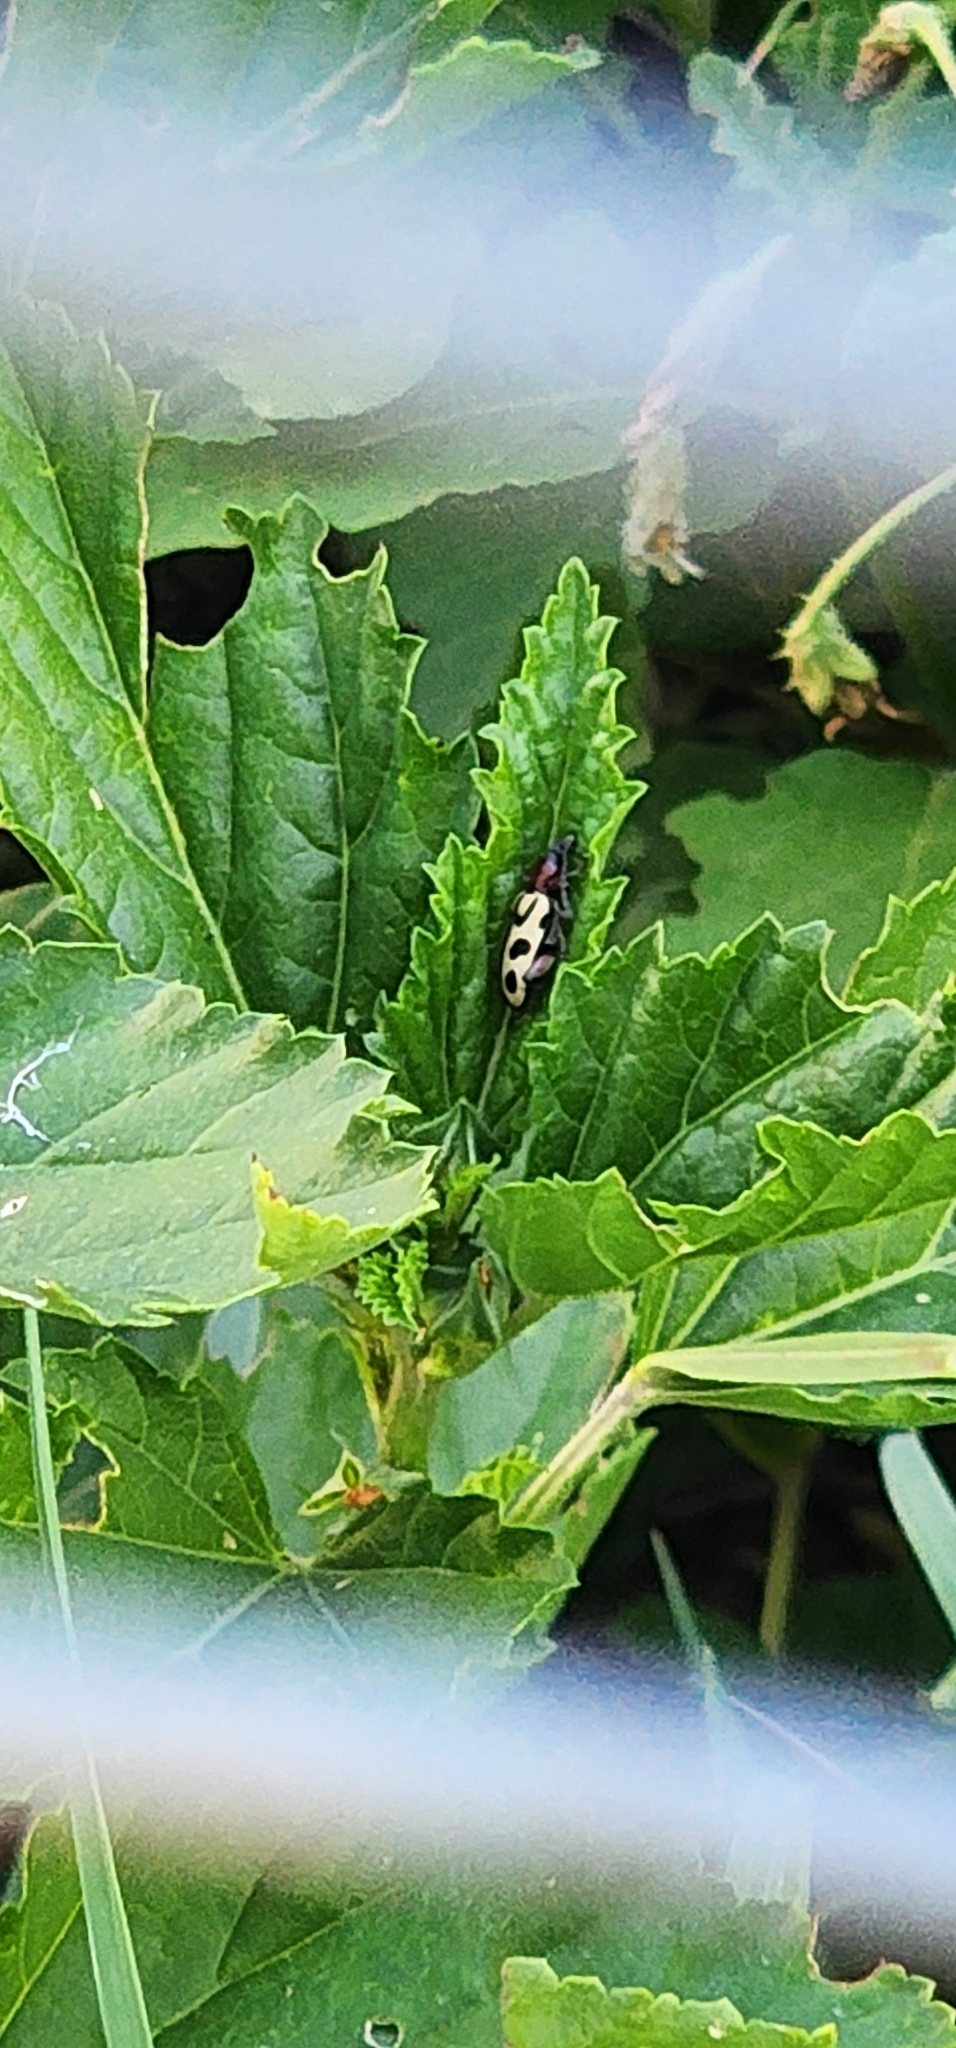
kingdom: Animalia
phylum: Arthropoda
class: Insecta
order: Coleoptera
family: Chrysomelidae
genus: Atalasis
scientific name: Atalasis
